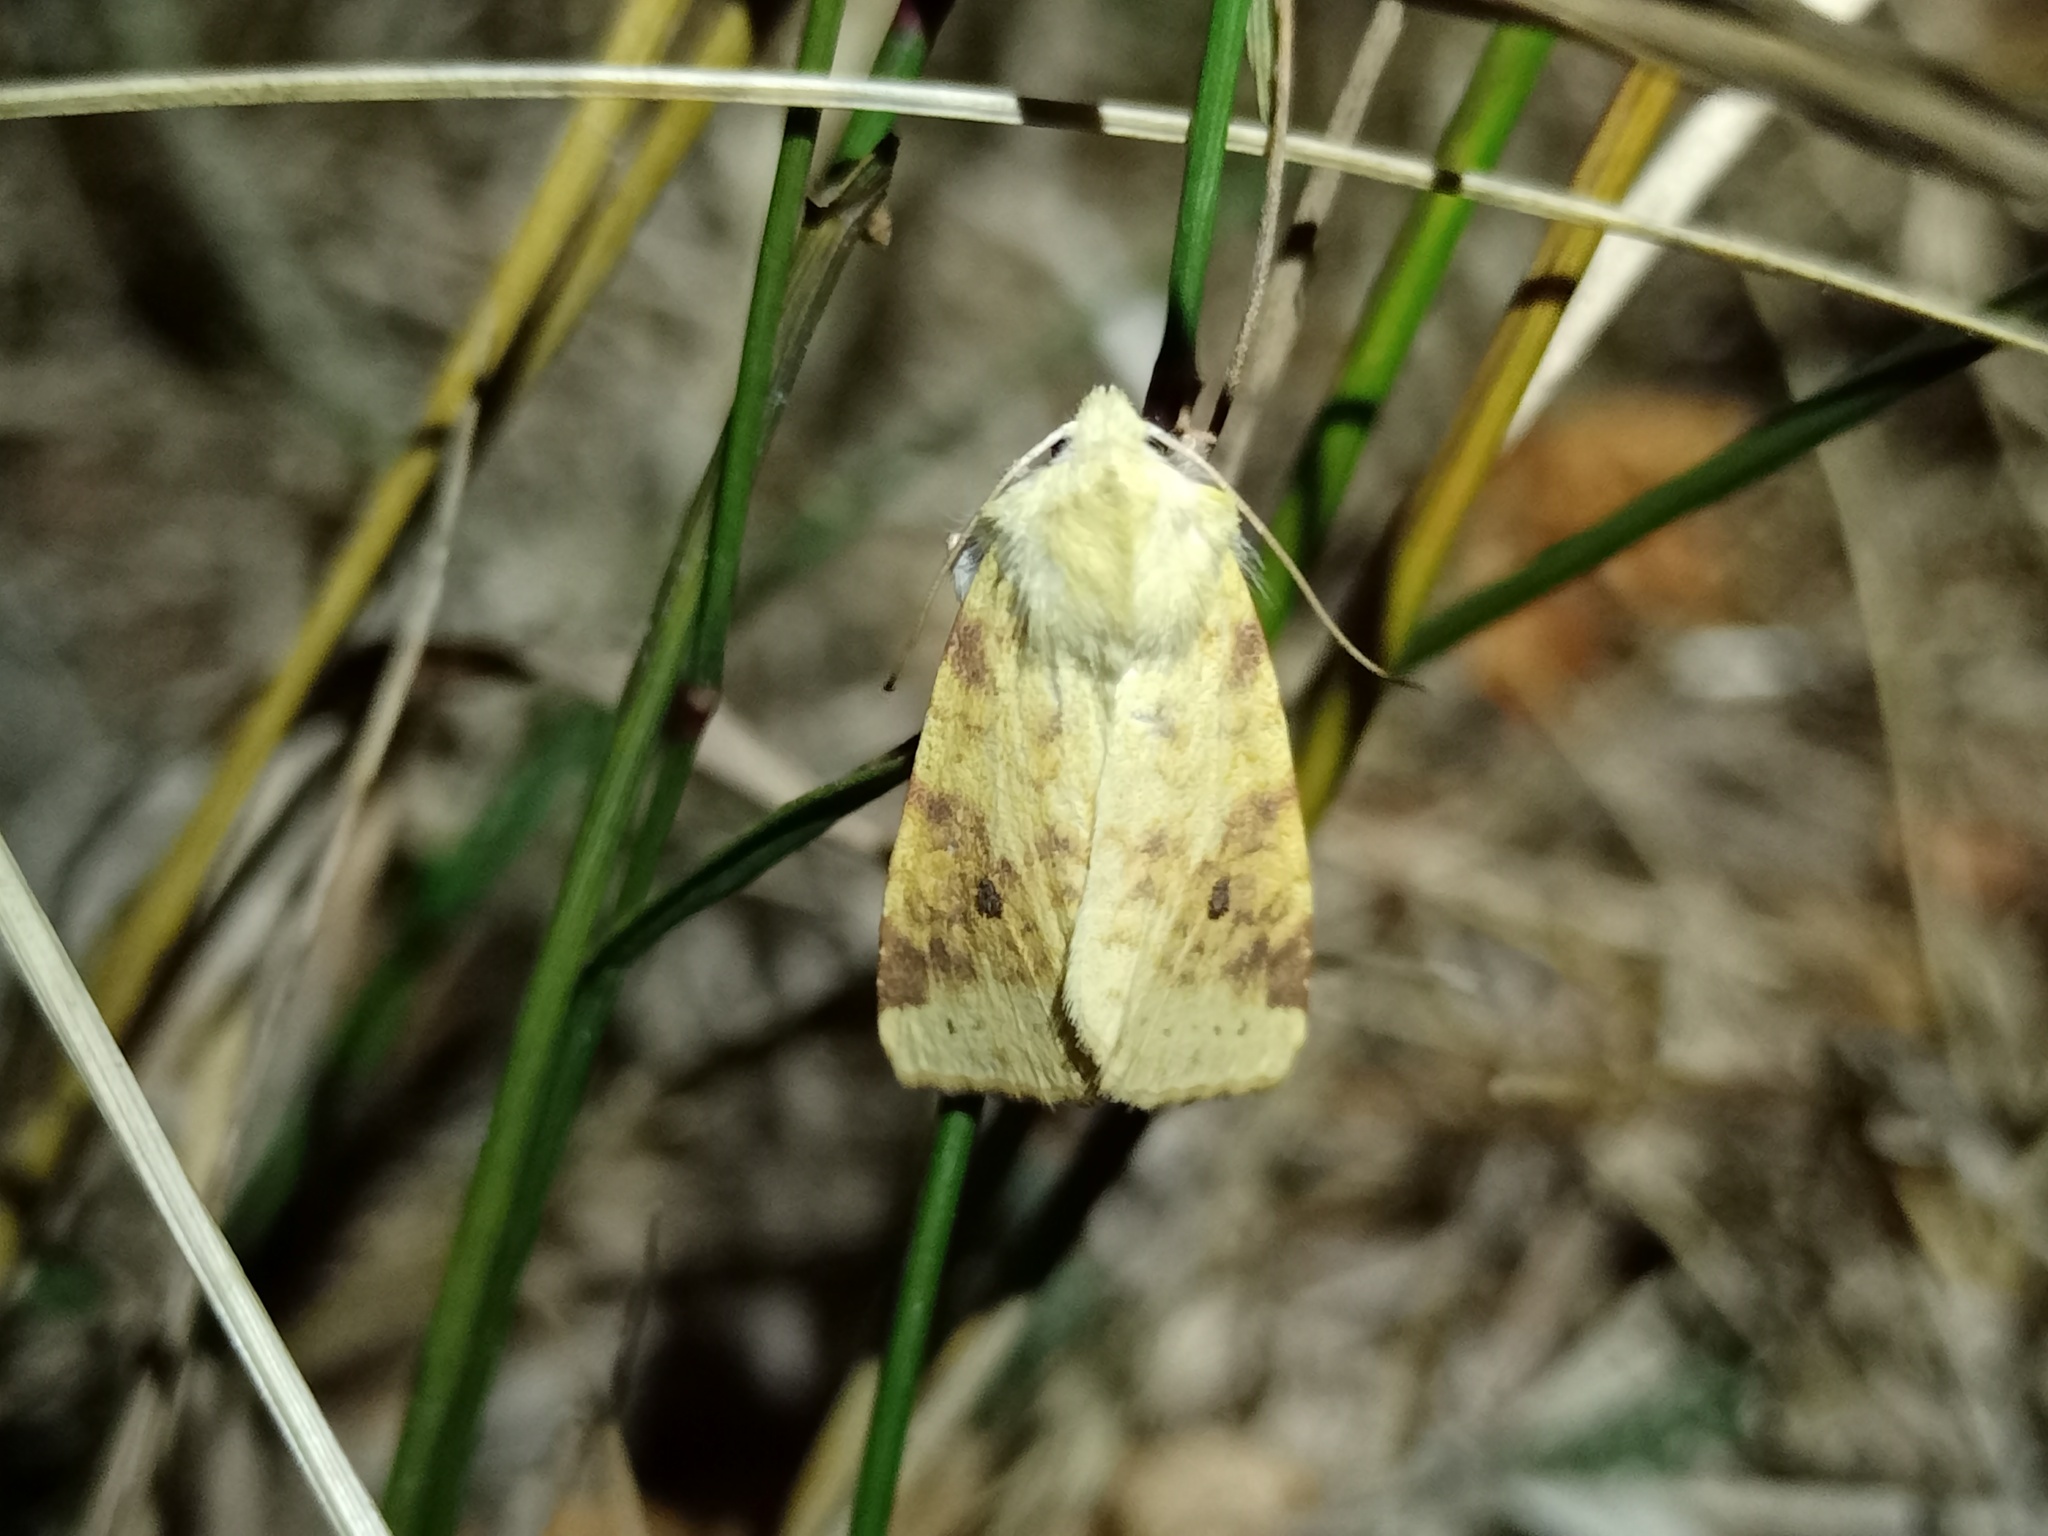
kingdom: Animalia
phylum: Arthropoda
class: Insecta
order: Lepidoptera
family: Noctuidae
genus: Xanthia
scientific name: Xanthia icteritia
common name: The sallow
